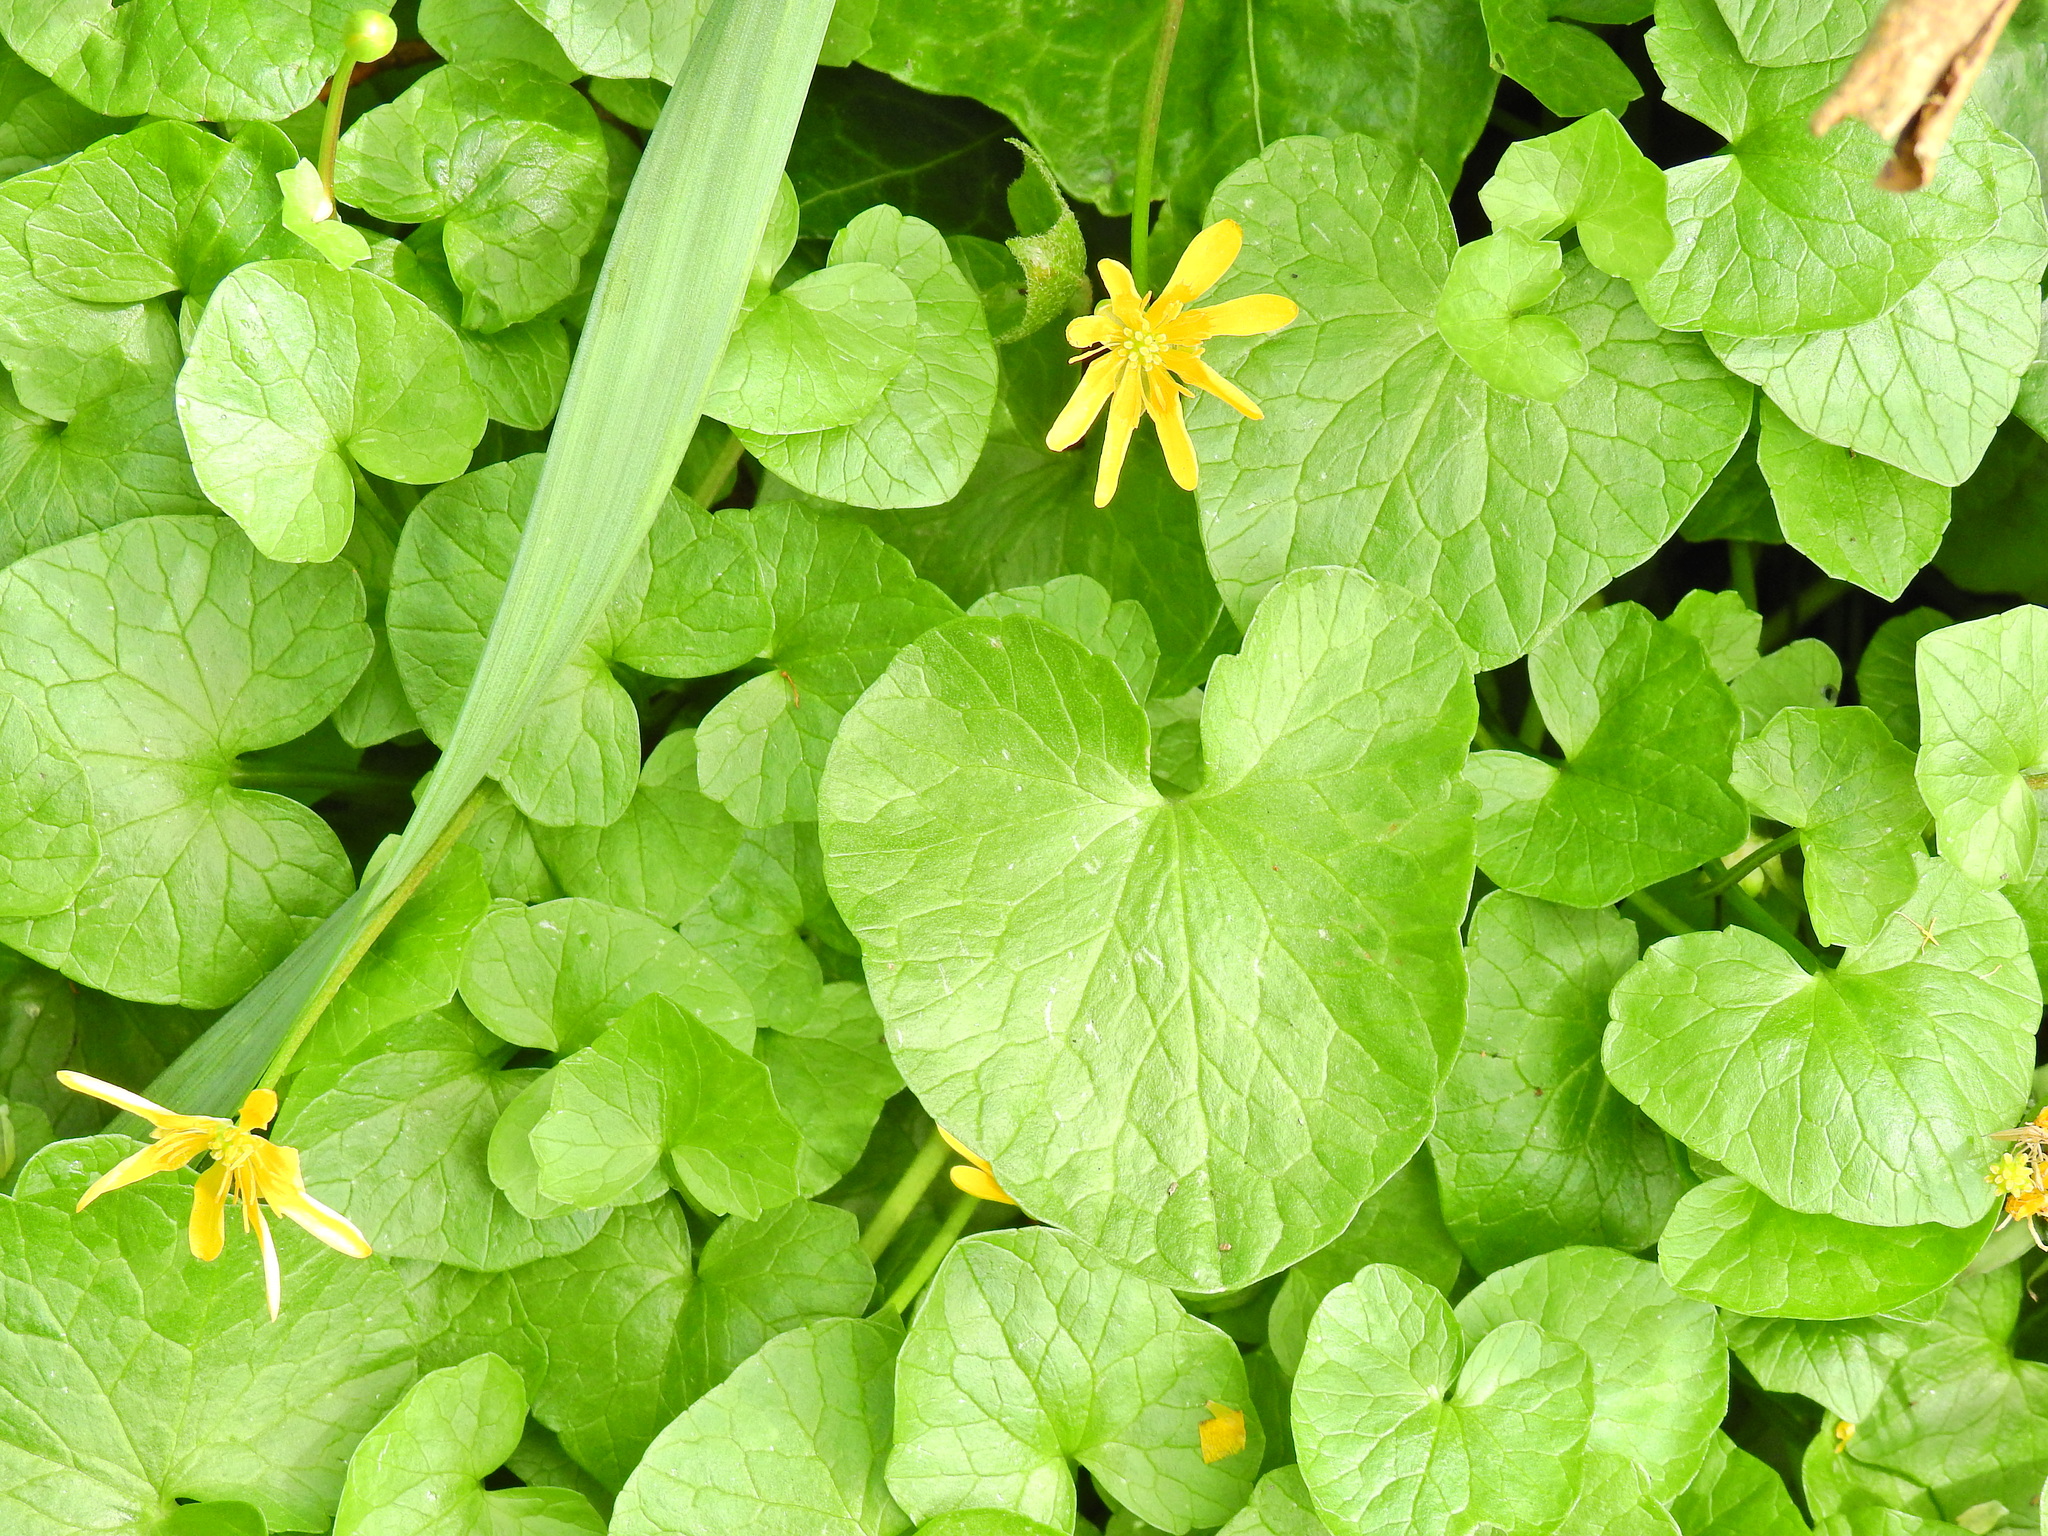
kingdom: Plantae
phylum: Tracheophyta
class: Magnoliopsida
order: Ranunculales
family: Ranunculaceae
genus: Ficaria
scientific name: Ficaria verna
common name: Lesser celandine
